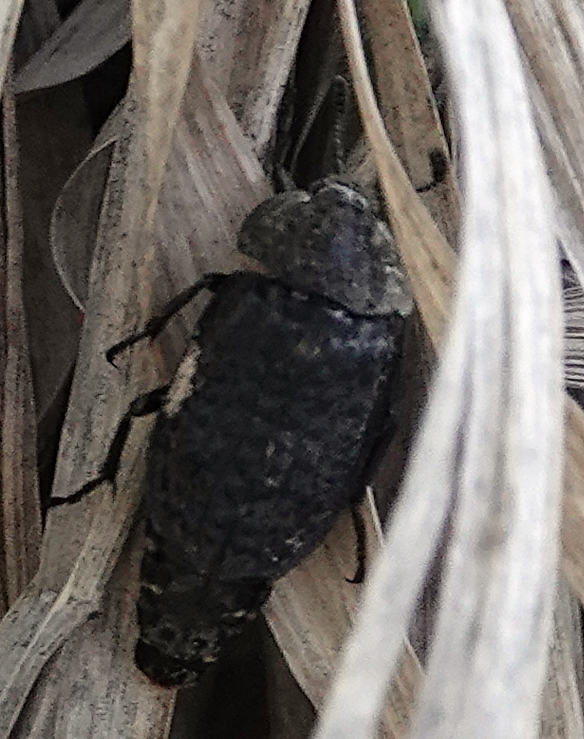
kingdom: Animalia
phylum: Arthropoda
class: Insecta
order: Coleoptera
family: Staphylinidae
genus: Thanatophilus
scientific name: Thanatophilus lapponicus
